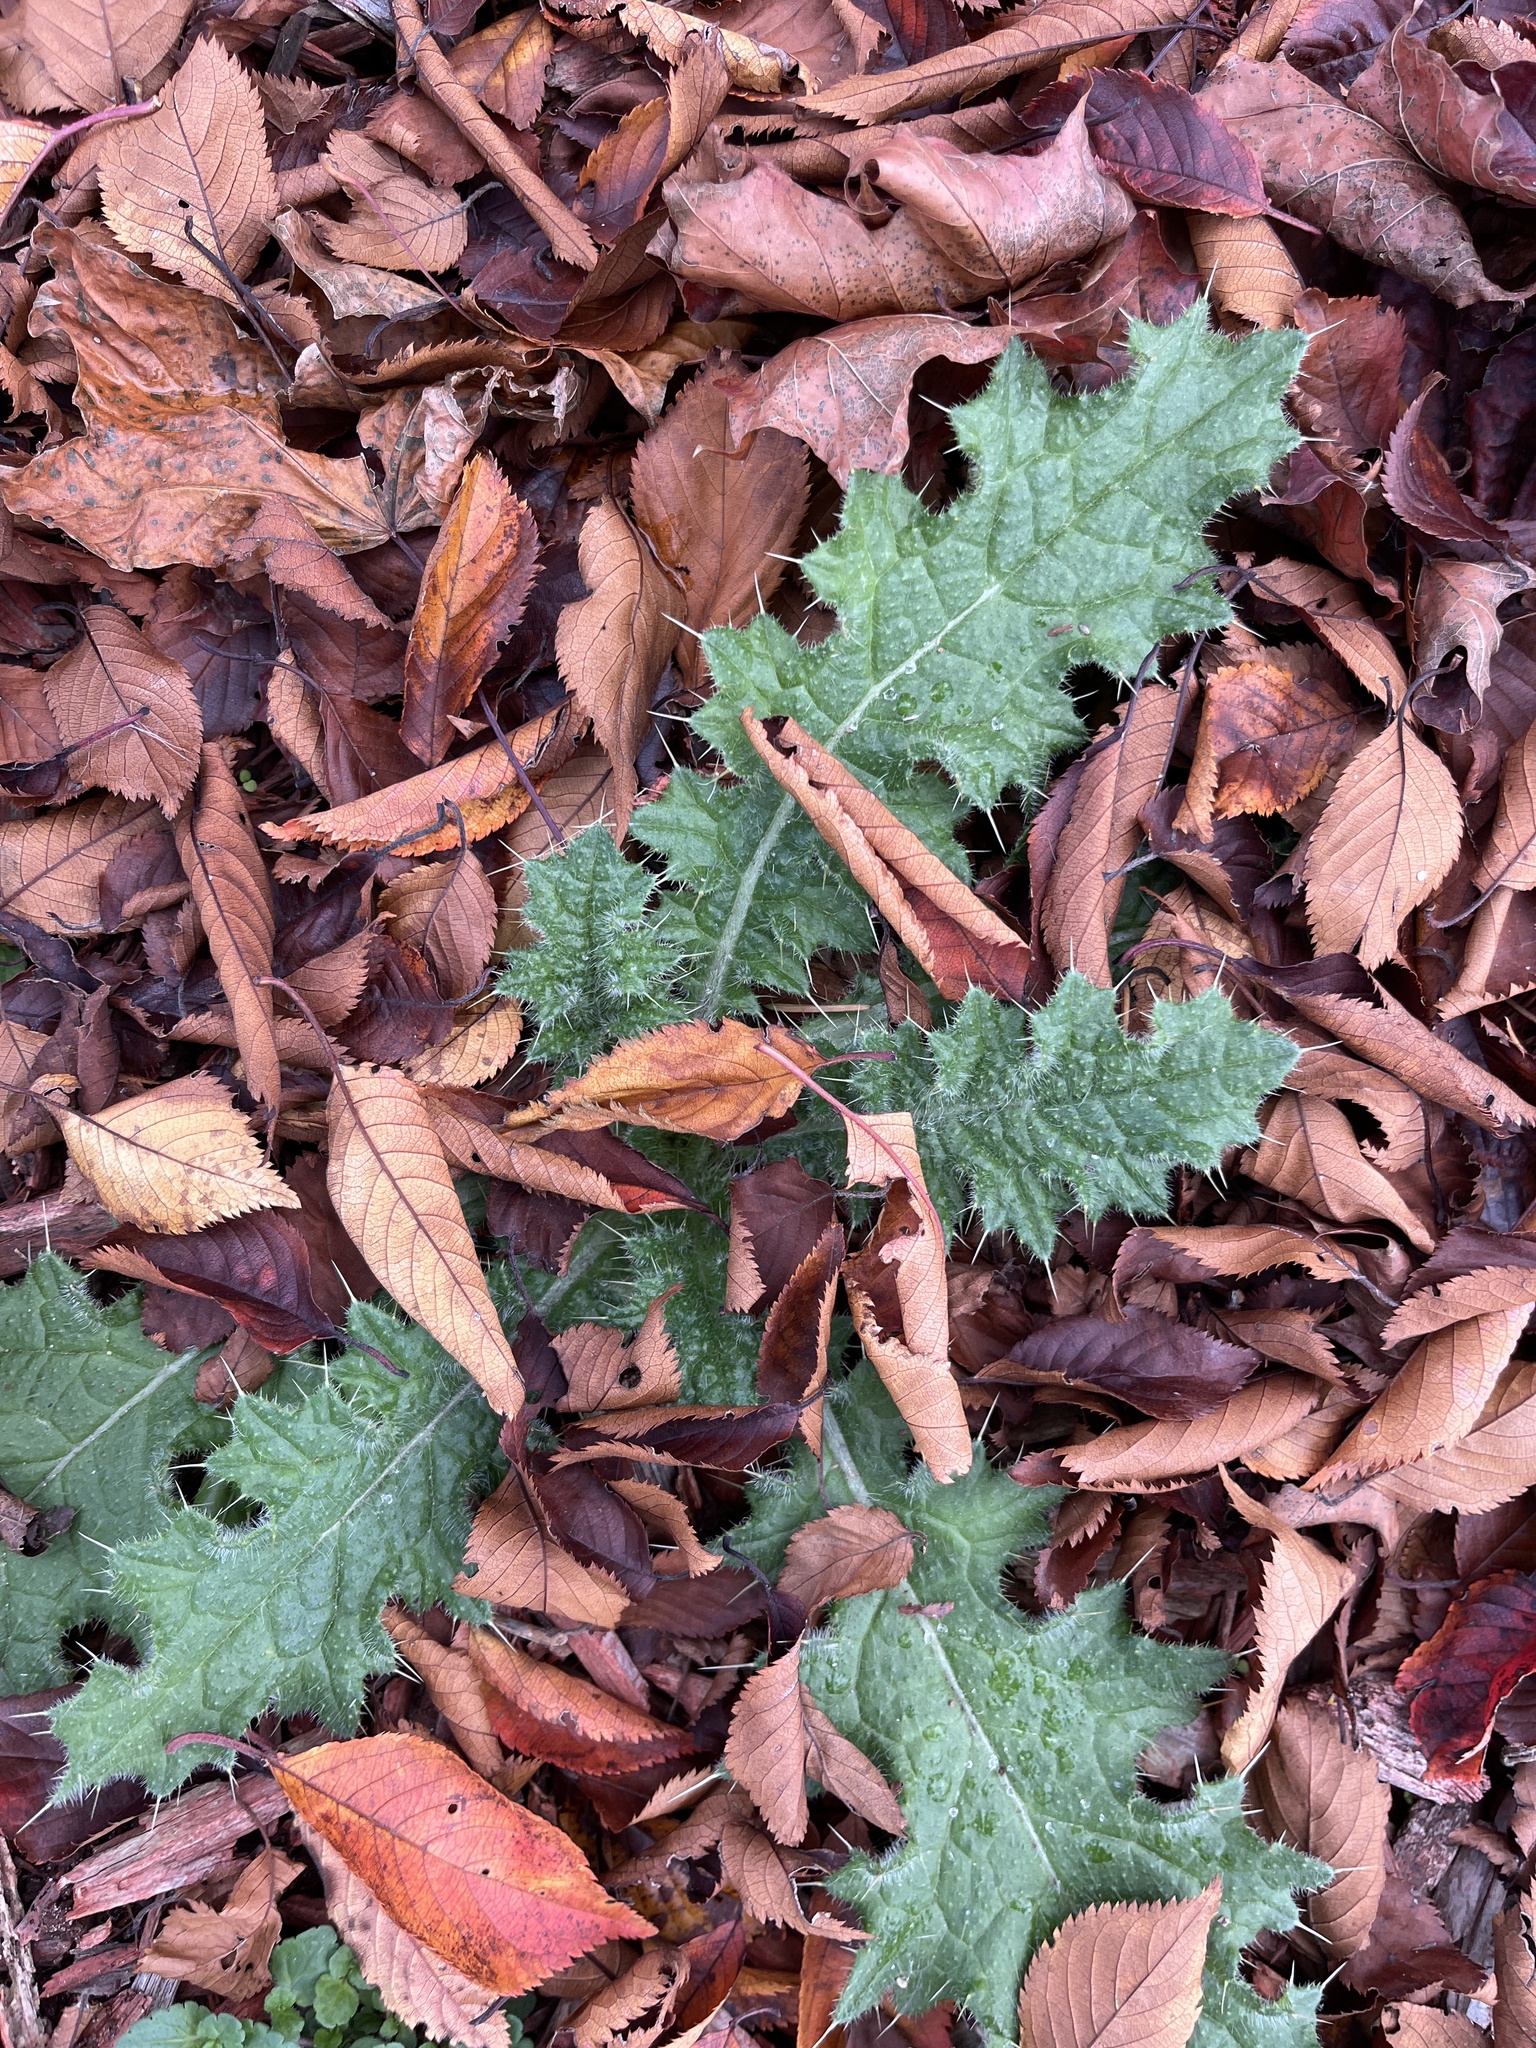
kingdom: Plantae
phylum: Tracheophyta
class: Magnoliopsida
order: Asterales
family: Asteraceae
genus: Cirsium
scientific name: Cirsium vulgare
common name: Bull thistle
